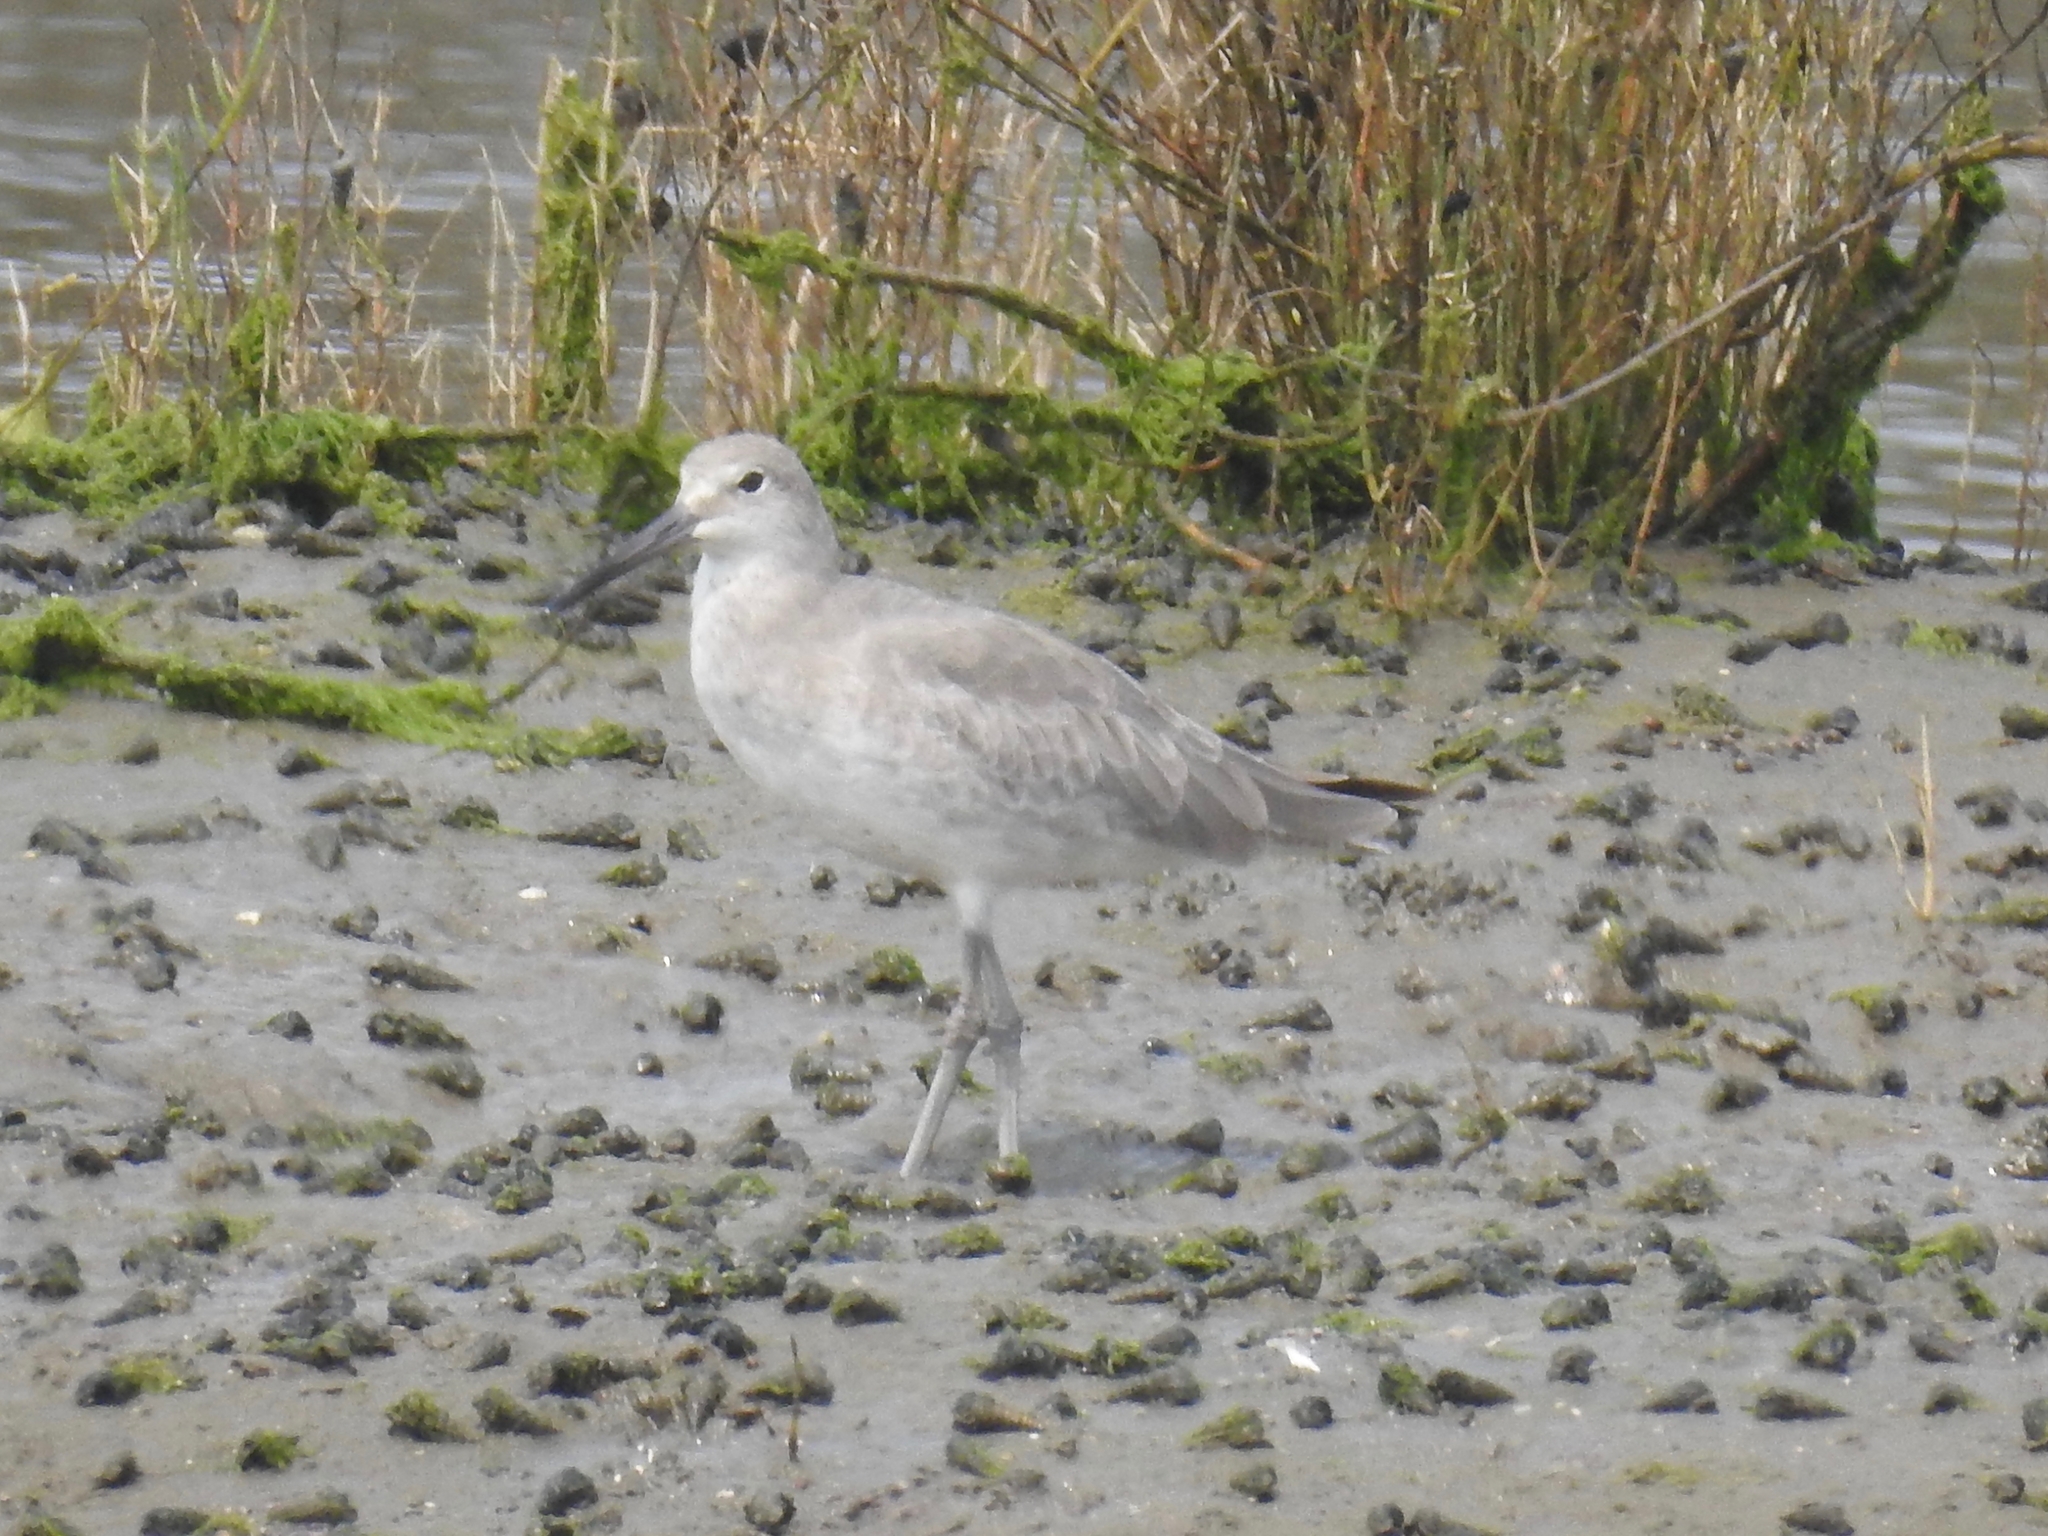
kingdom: Animalia
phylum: Chordata
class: Aves
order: Charadriiformes
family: Scolopacidae
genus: Tringa
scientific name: Tringa semipalmata
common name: Willet
